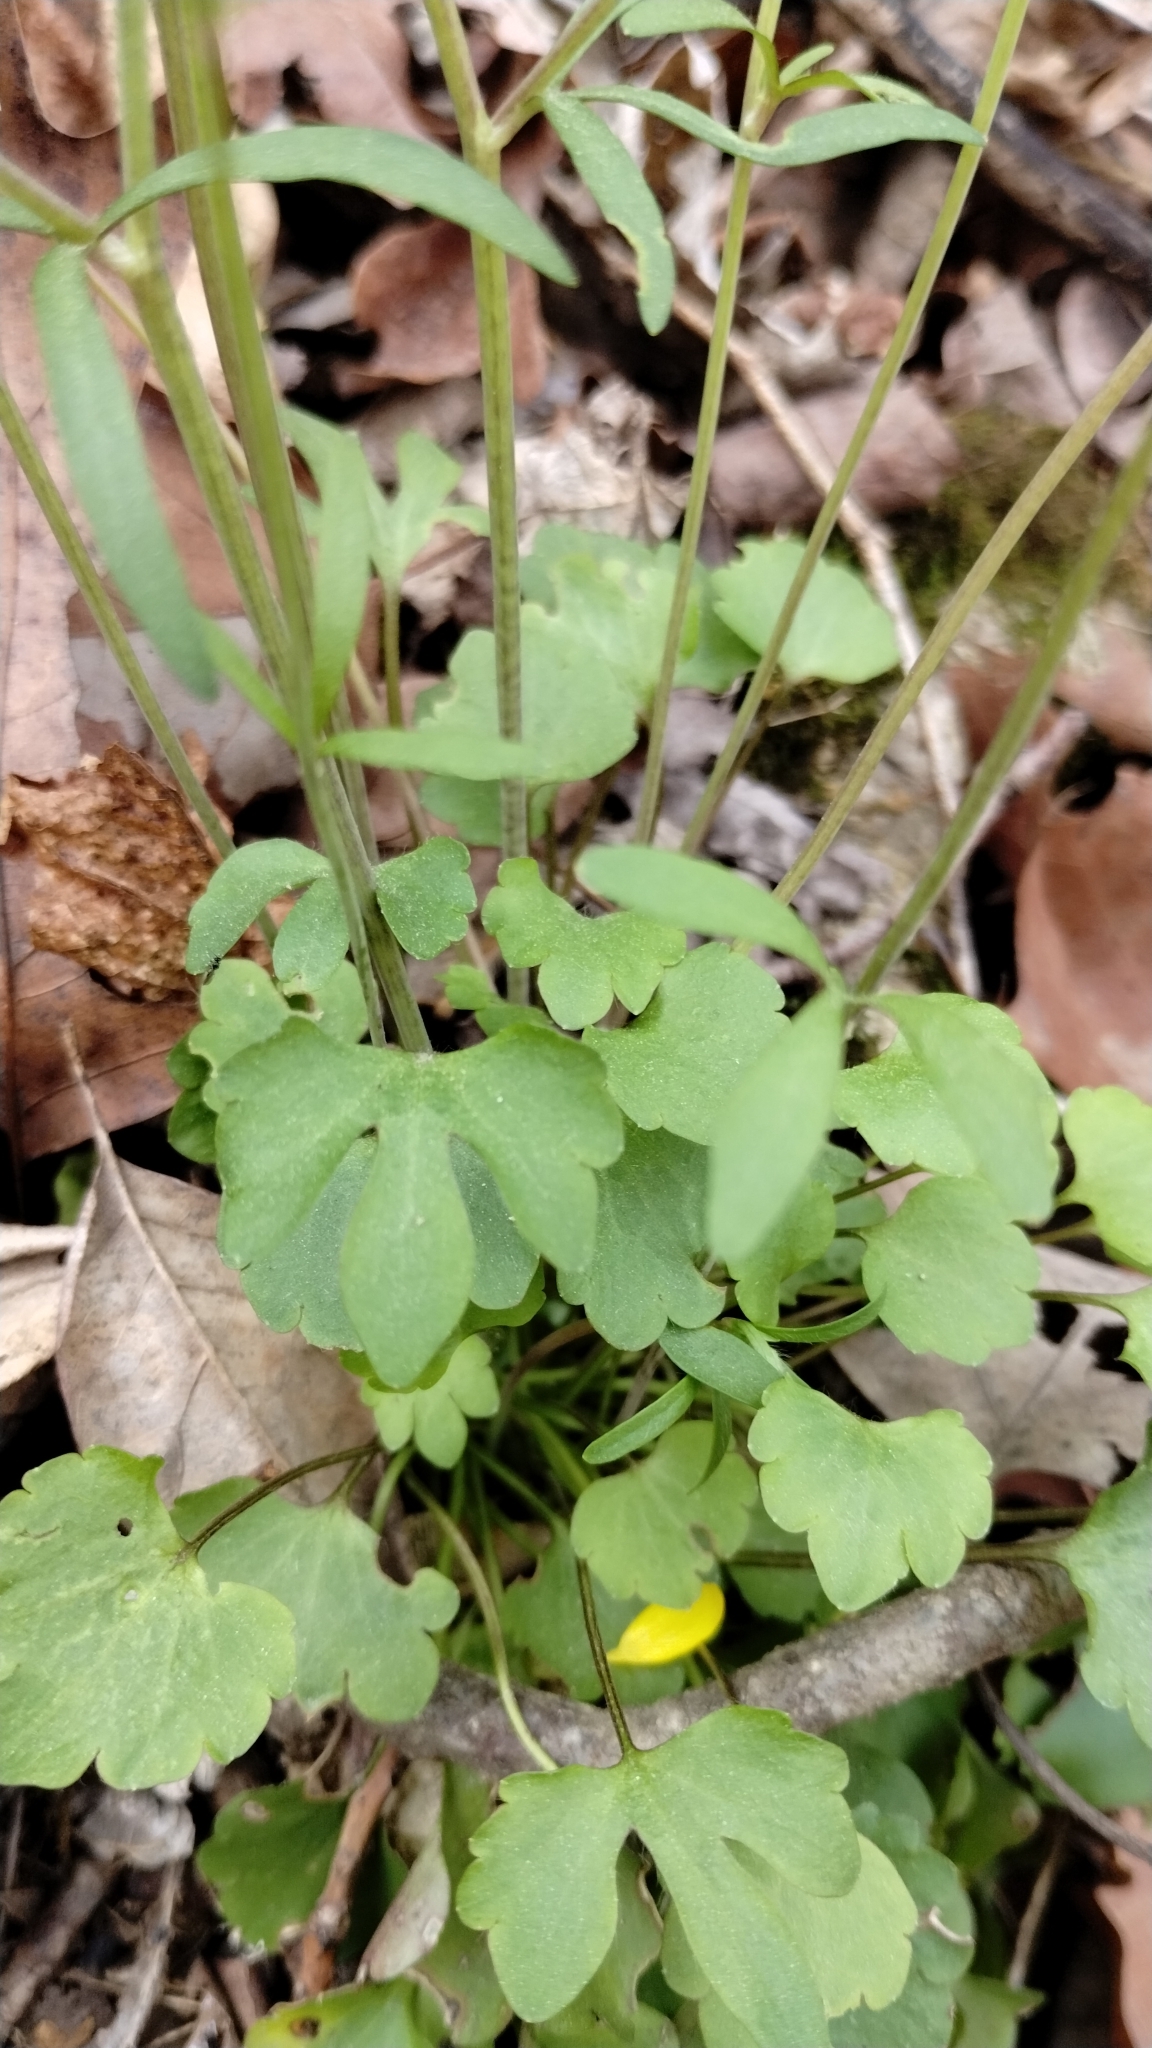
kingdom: Plantae
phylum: Tracheophyta
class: Magnoliopsida
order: Ranunculales
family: Ranunculaceae
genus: Ranunculus
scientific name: Ranunculus harveyi
